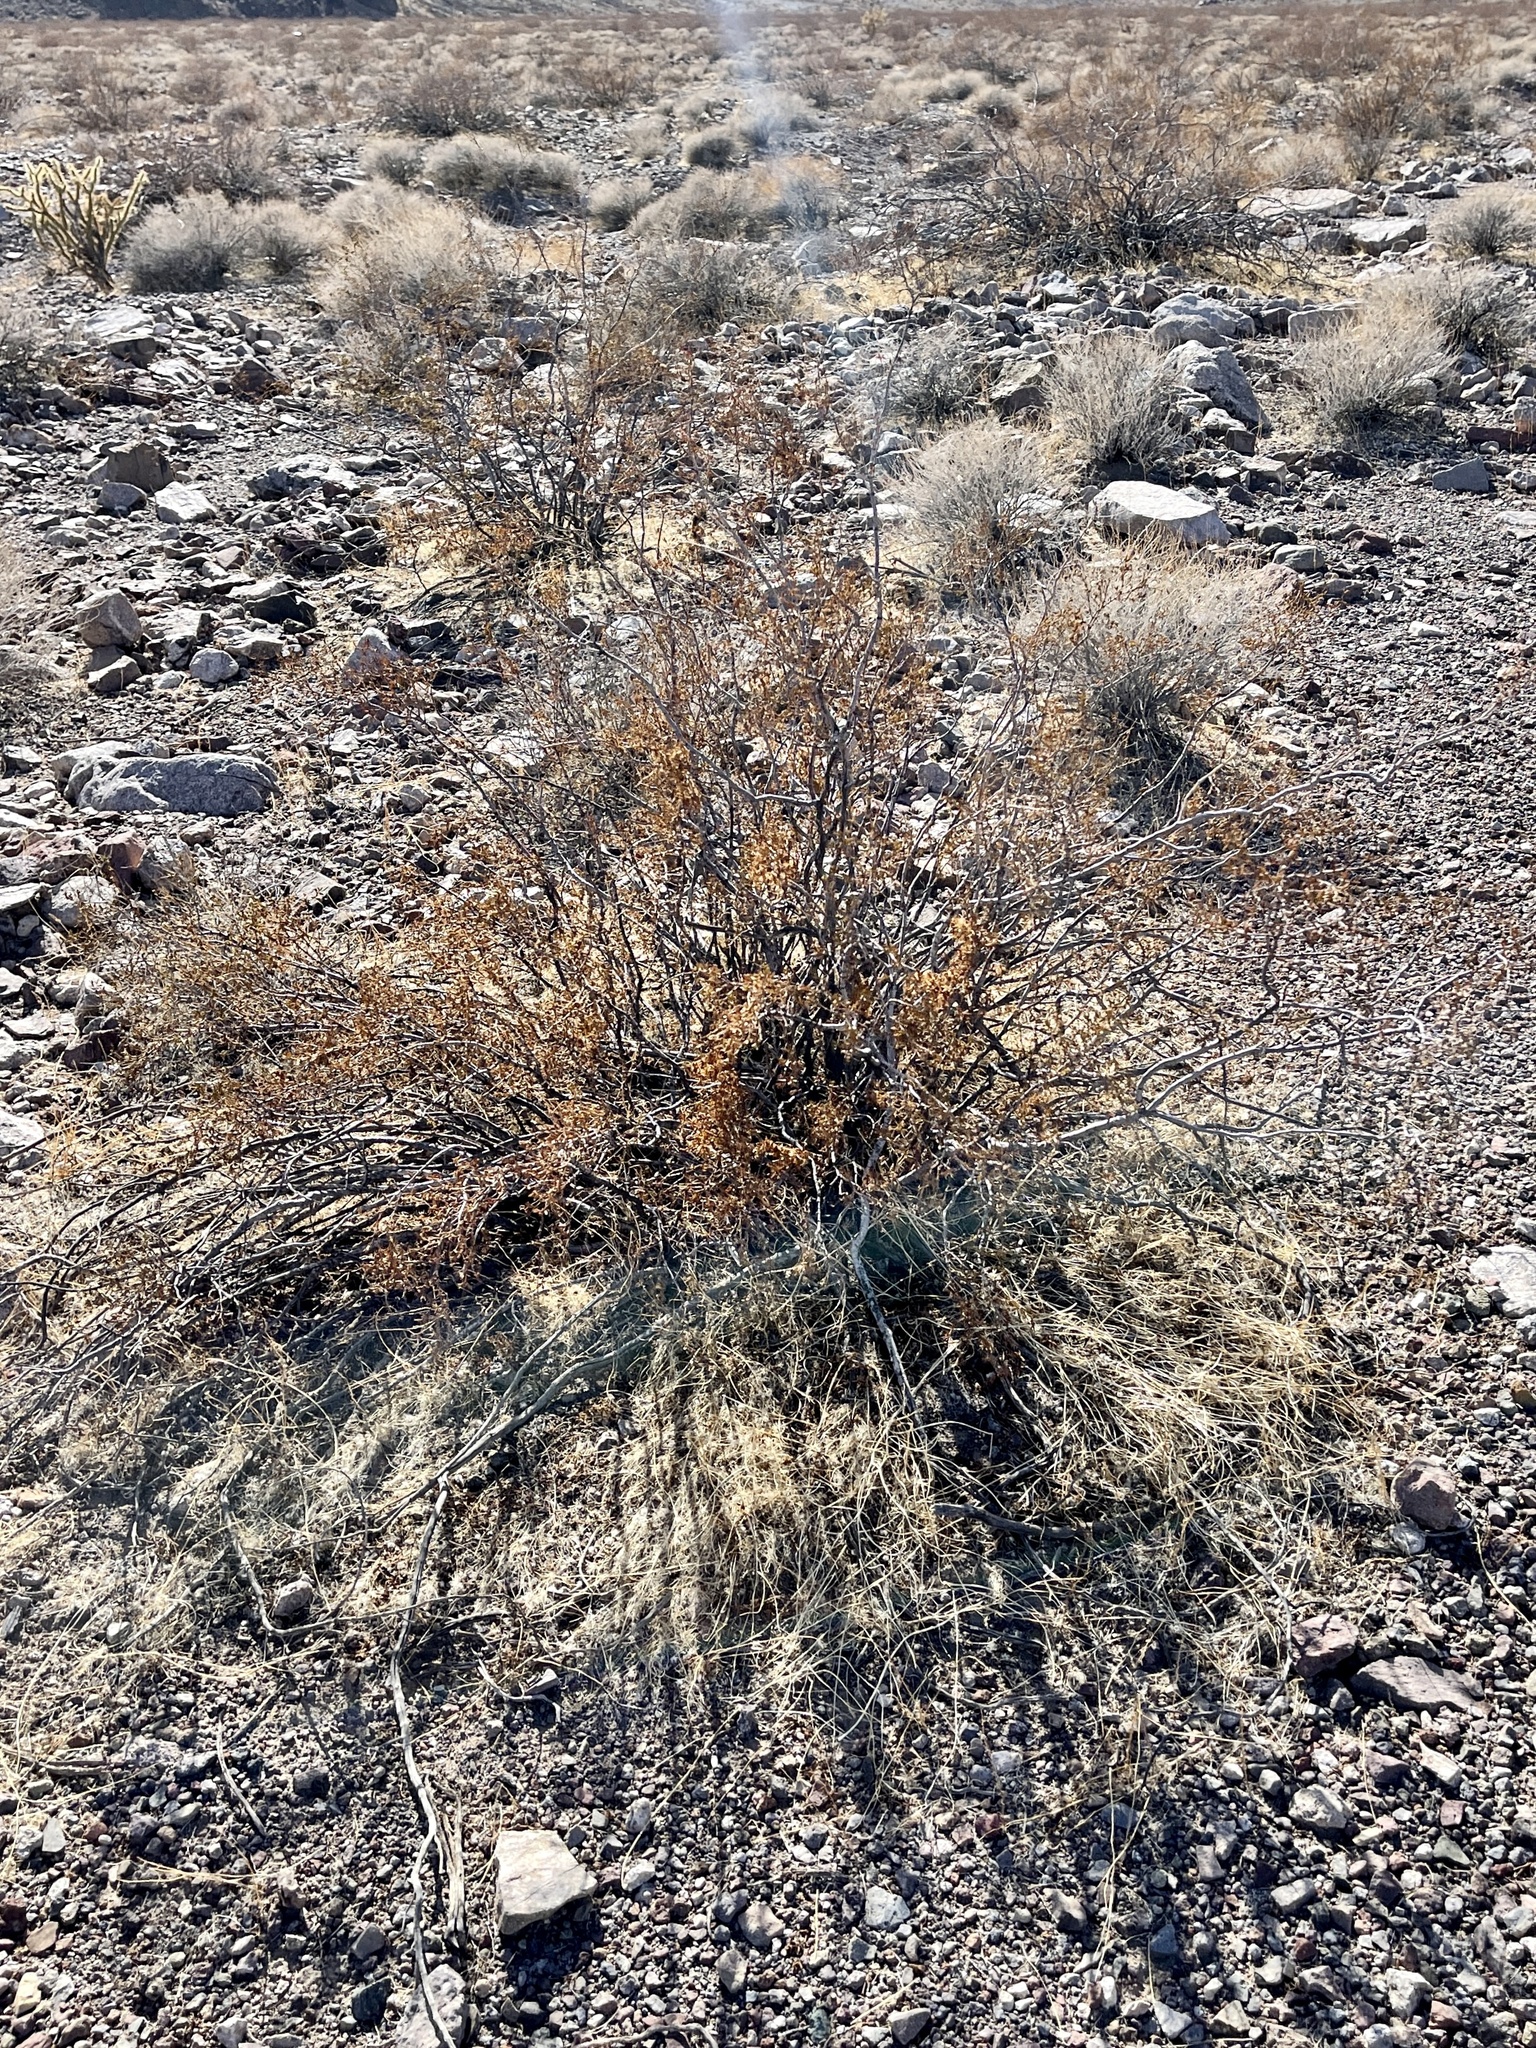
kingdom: Plantae
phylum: Tracheophyta
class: Magnoliopsida
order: Zygophyllales
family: Zygophyllaceae
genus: Larrea
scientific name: Larrea tridentata
